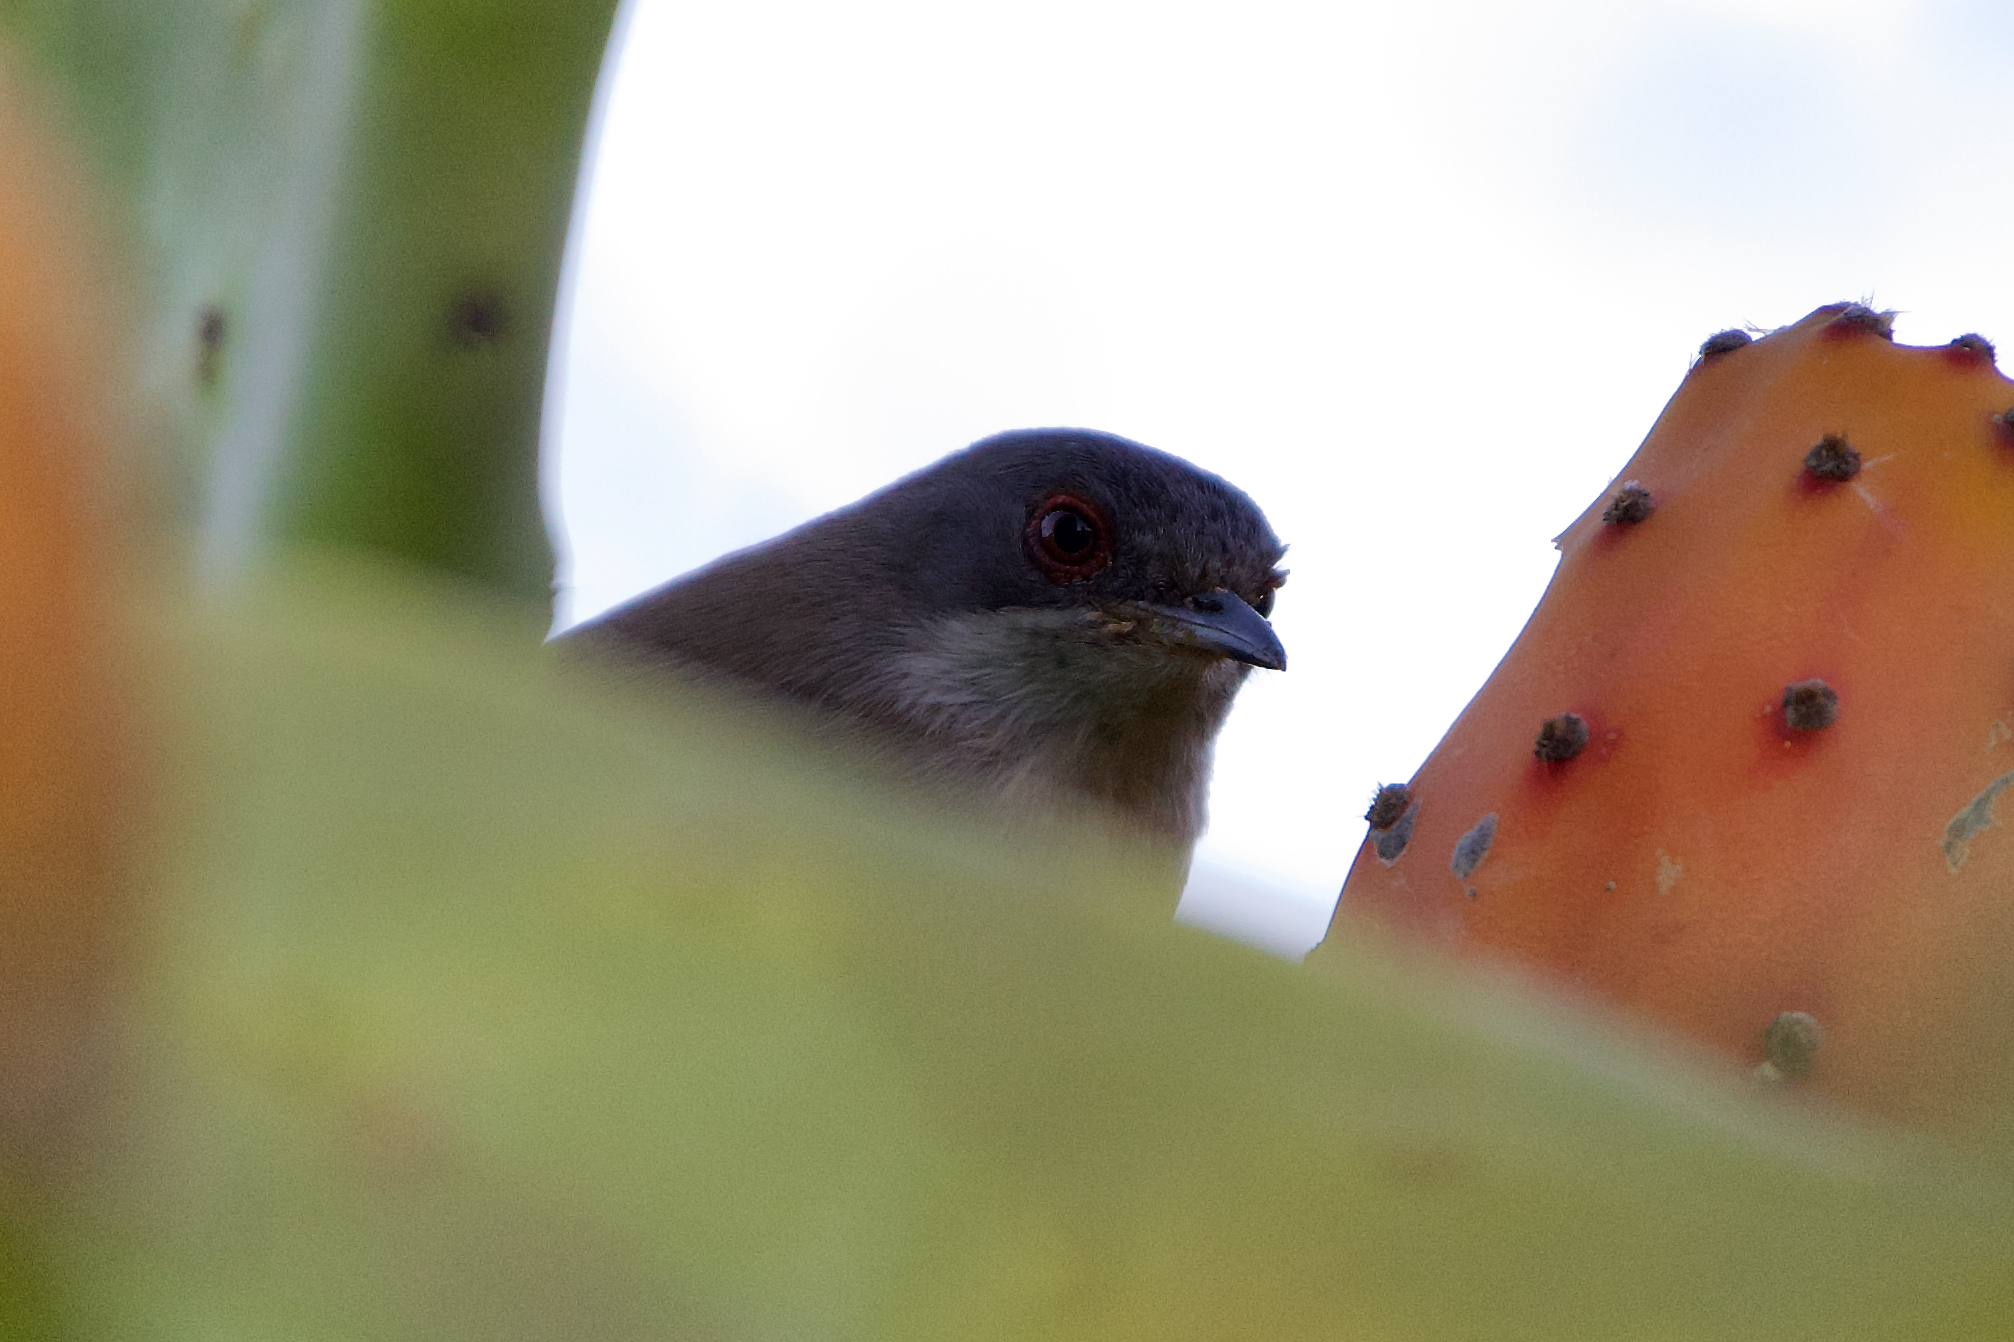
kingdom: Animalia
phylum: Chordata
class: Aves
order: Passeriformes
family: Sylviidae
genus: Curruca
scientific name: Curruca melanocephala
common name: Sardinian warbler
